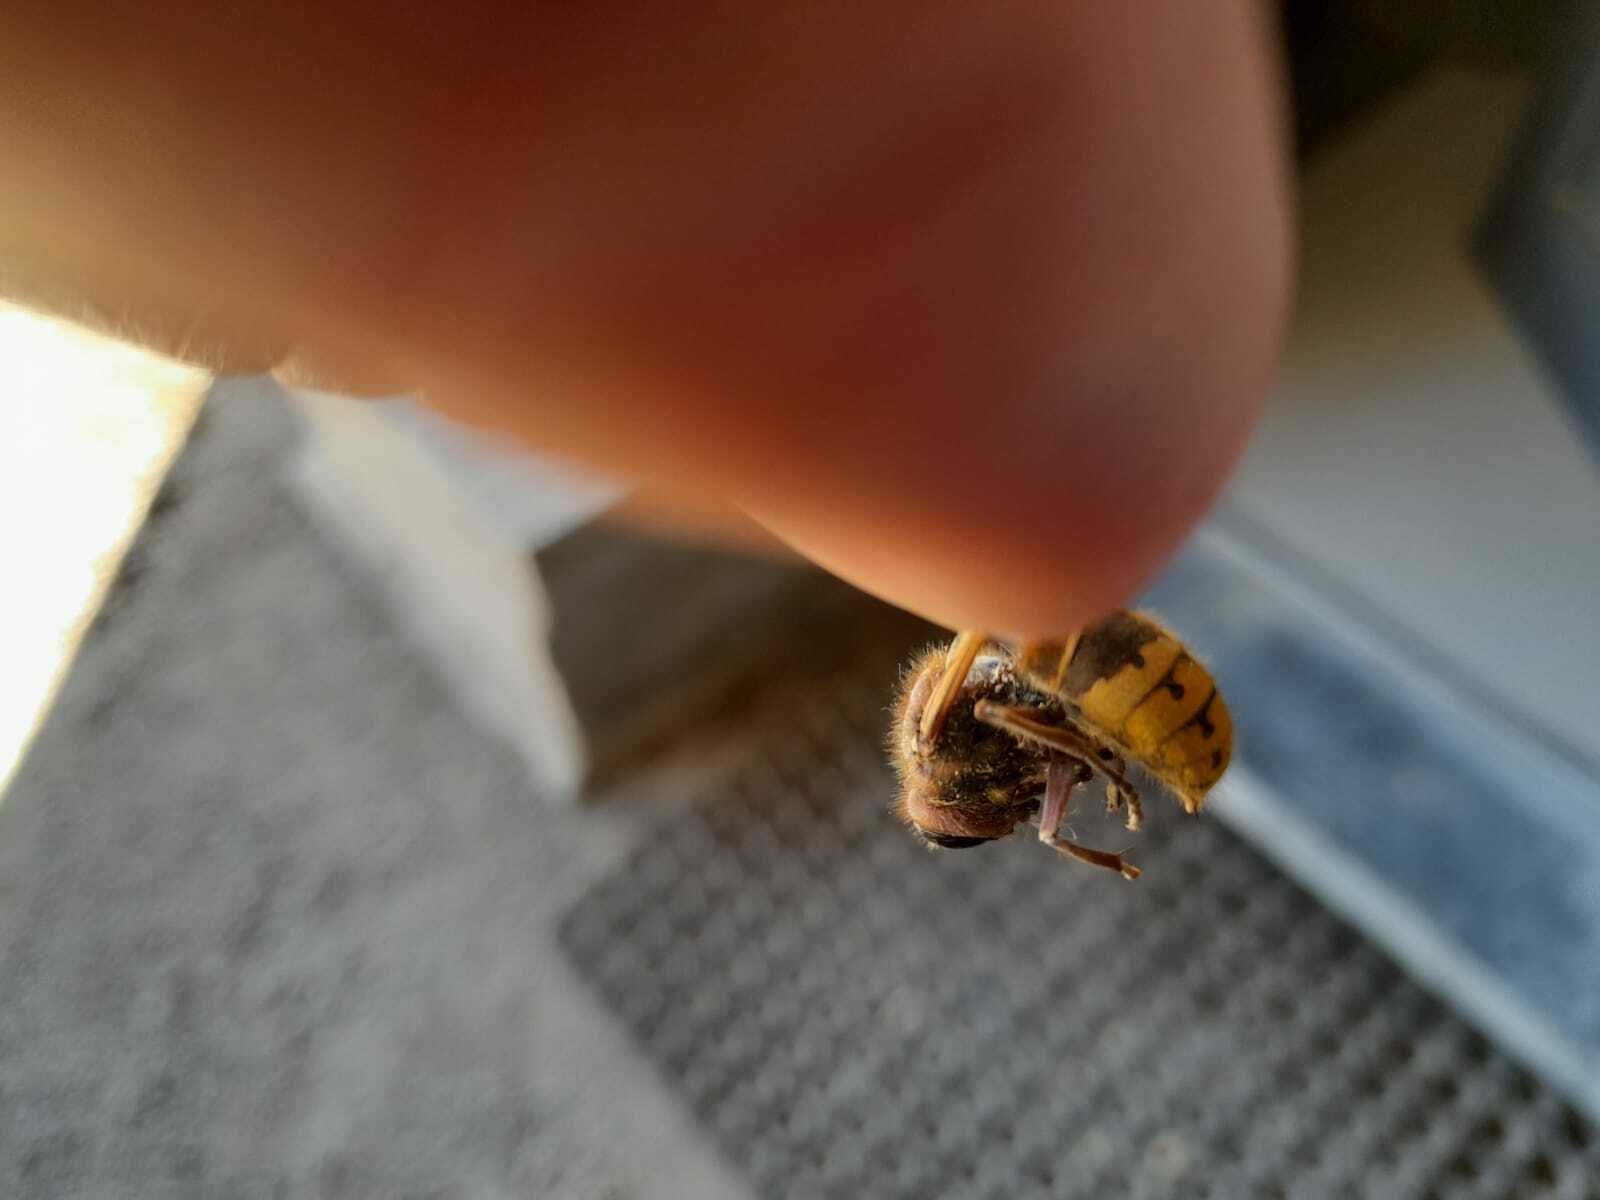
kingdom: Animalia
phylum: Arthropoda
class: Insecta
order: Hymenoptera
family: Vespidae
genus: Vespa
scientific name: Vespa crabro
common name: Hornet
